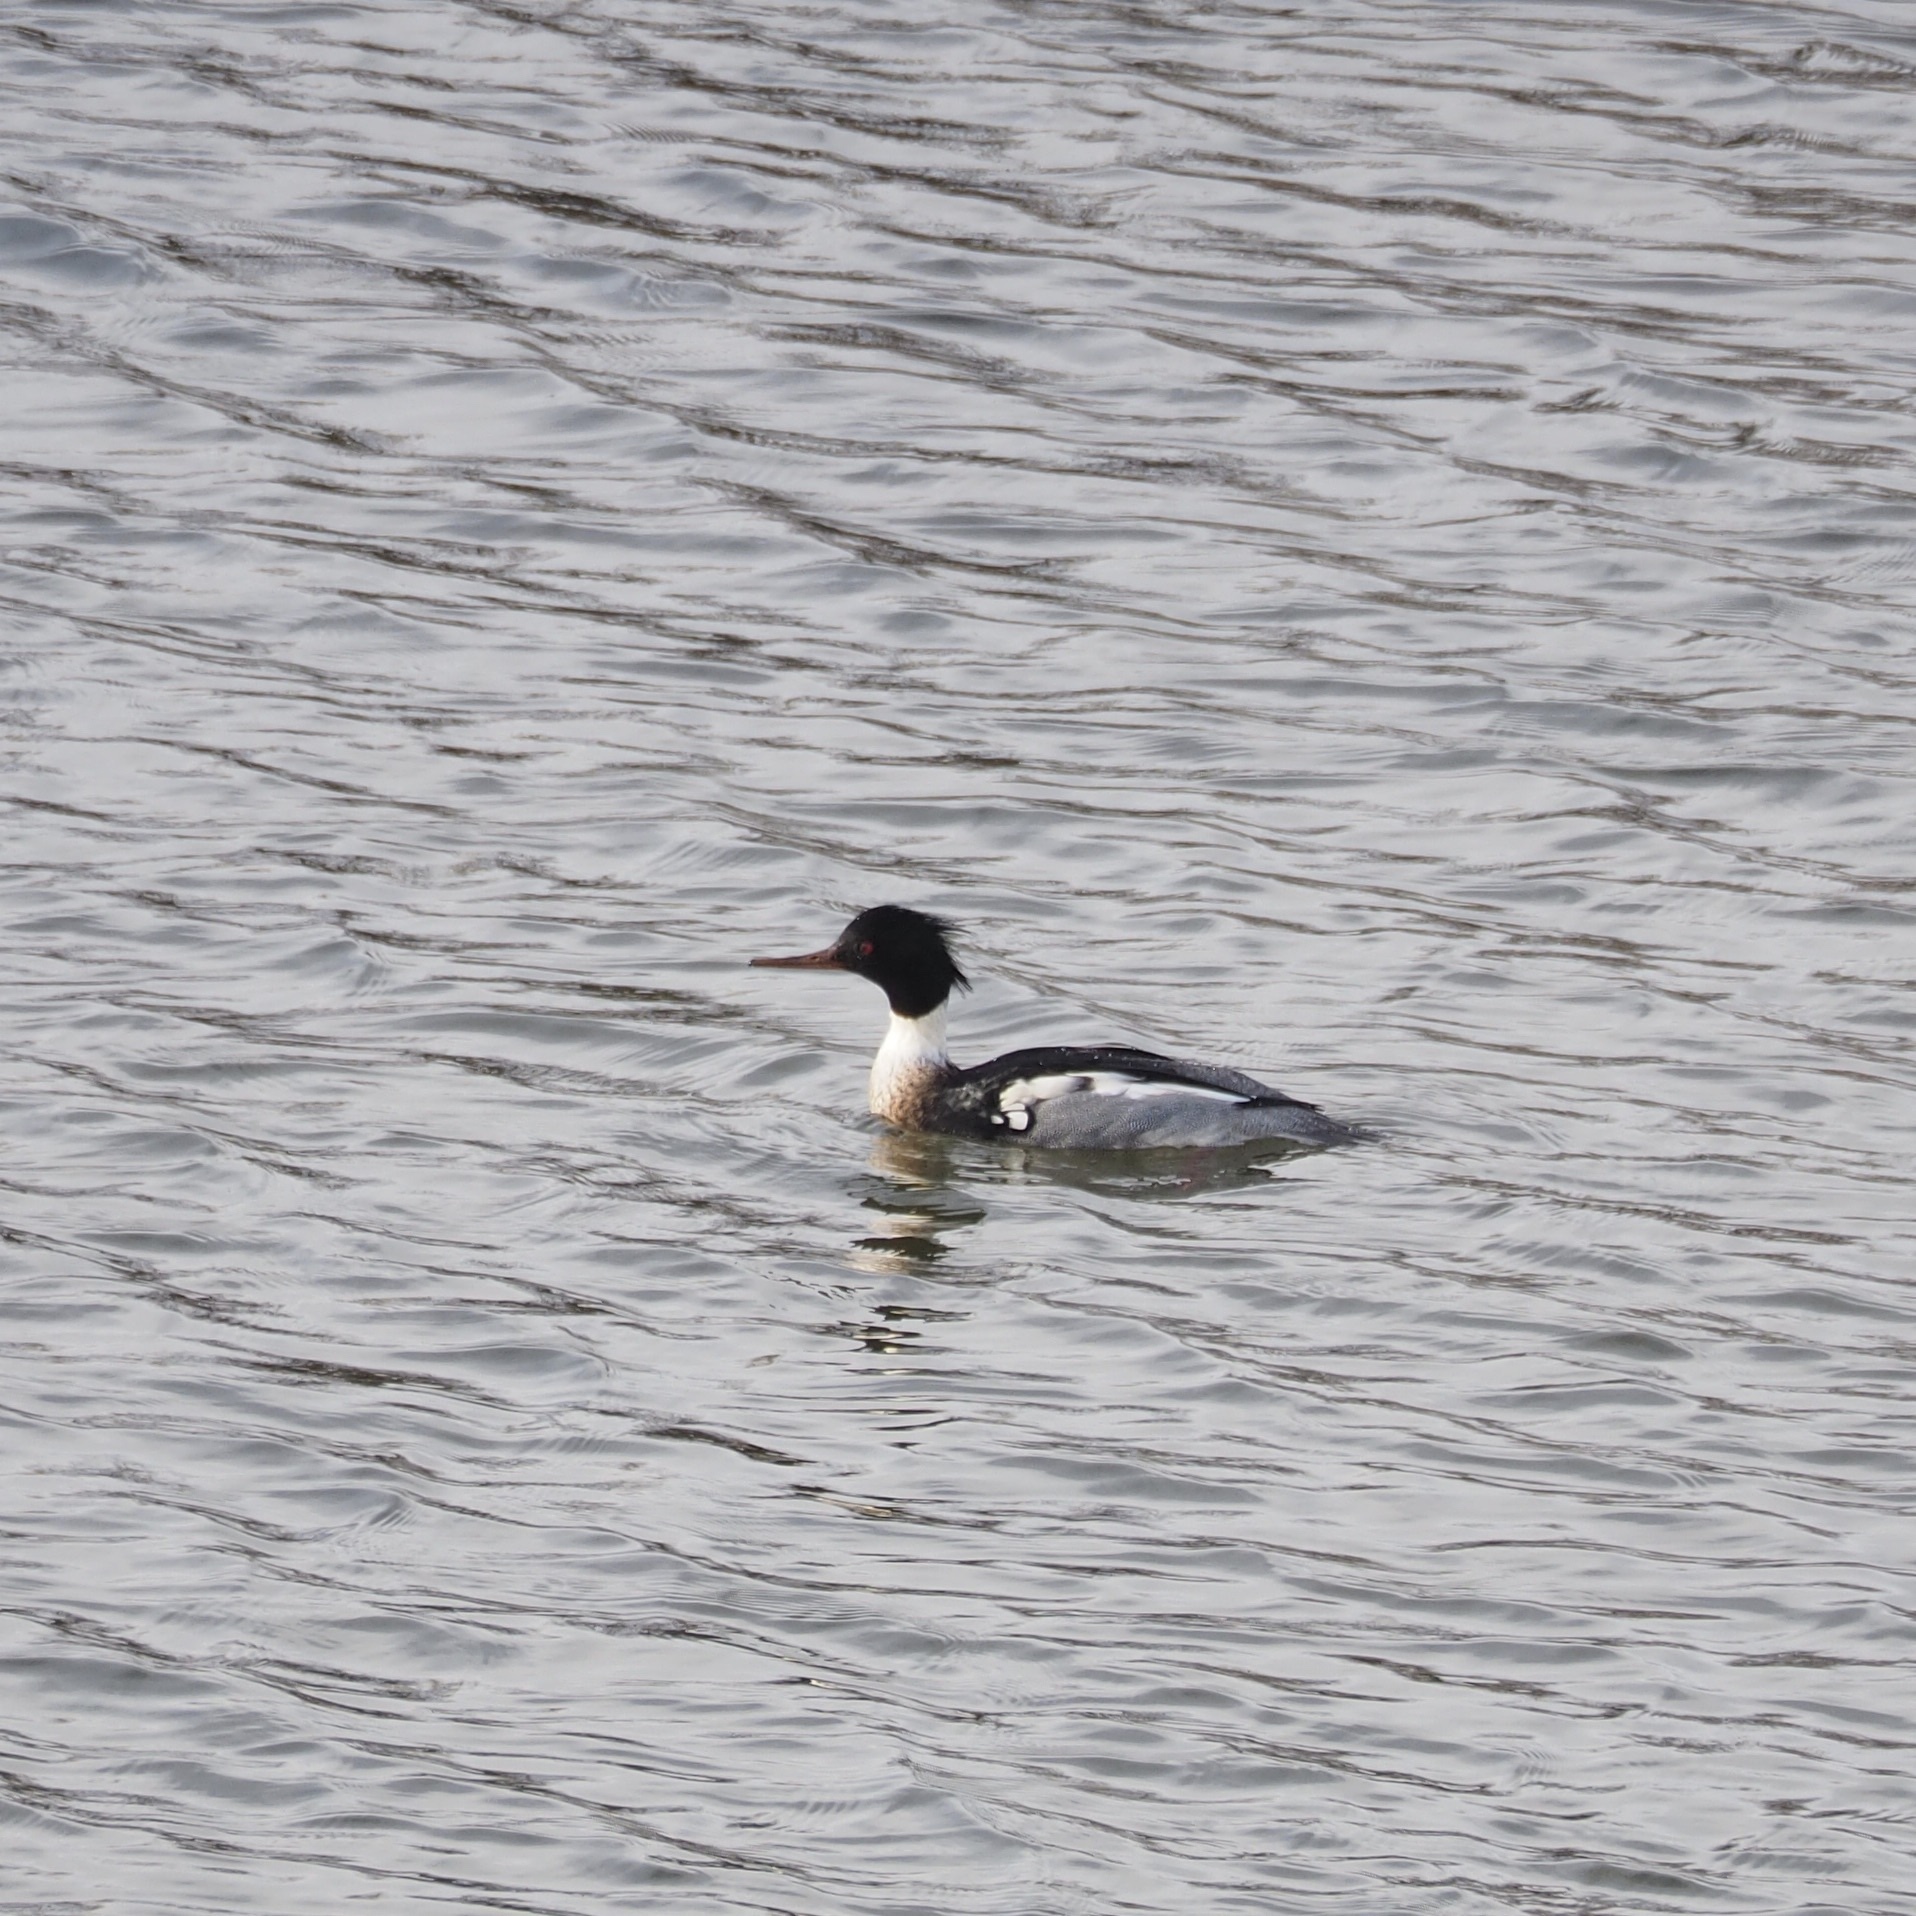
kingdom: Animalia
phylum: Chordata
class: Aves
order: Anseriformes
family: Anatidae
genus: Mergus
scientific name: Mergus serrator
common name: Red-breasted merganser
